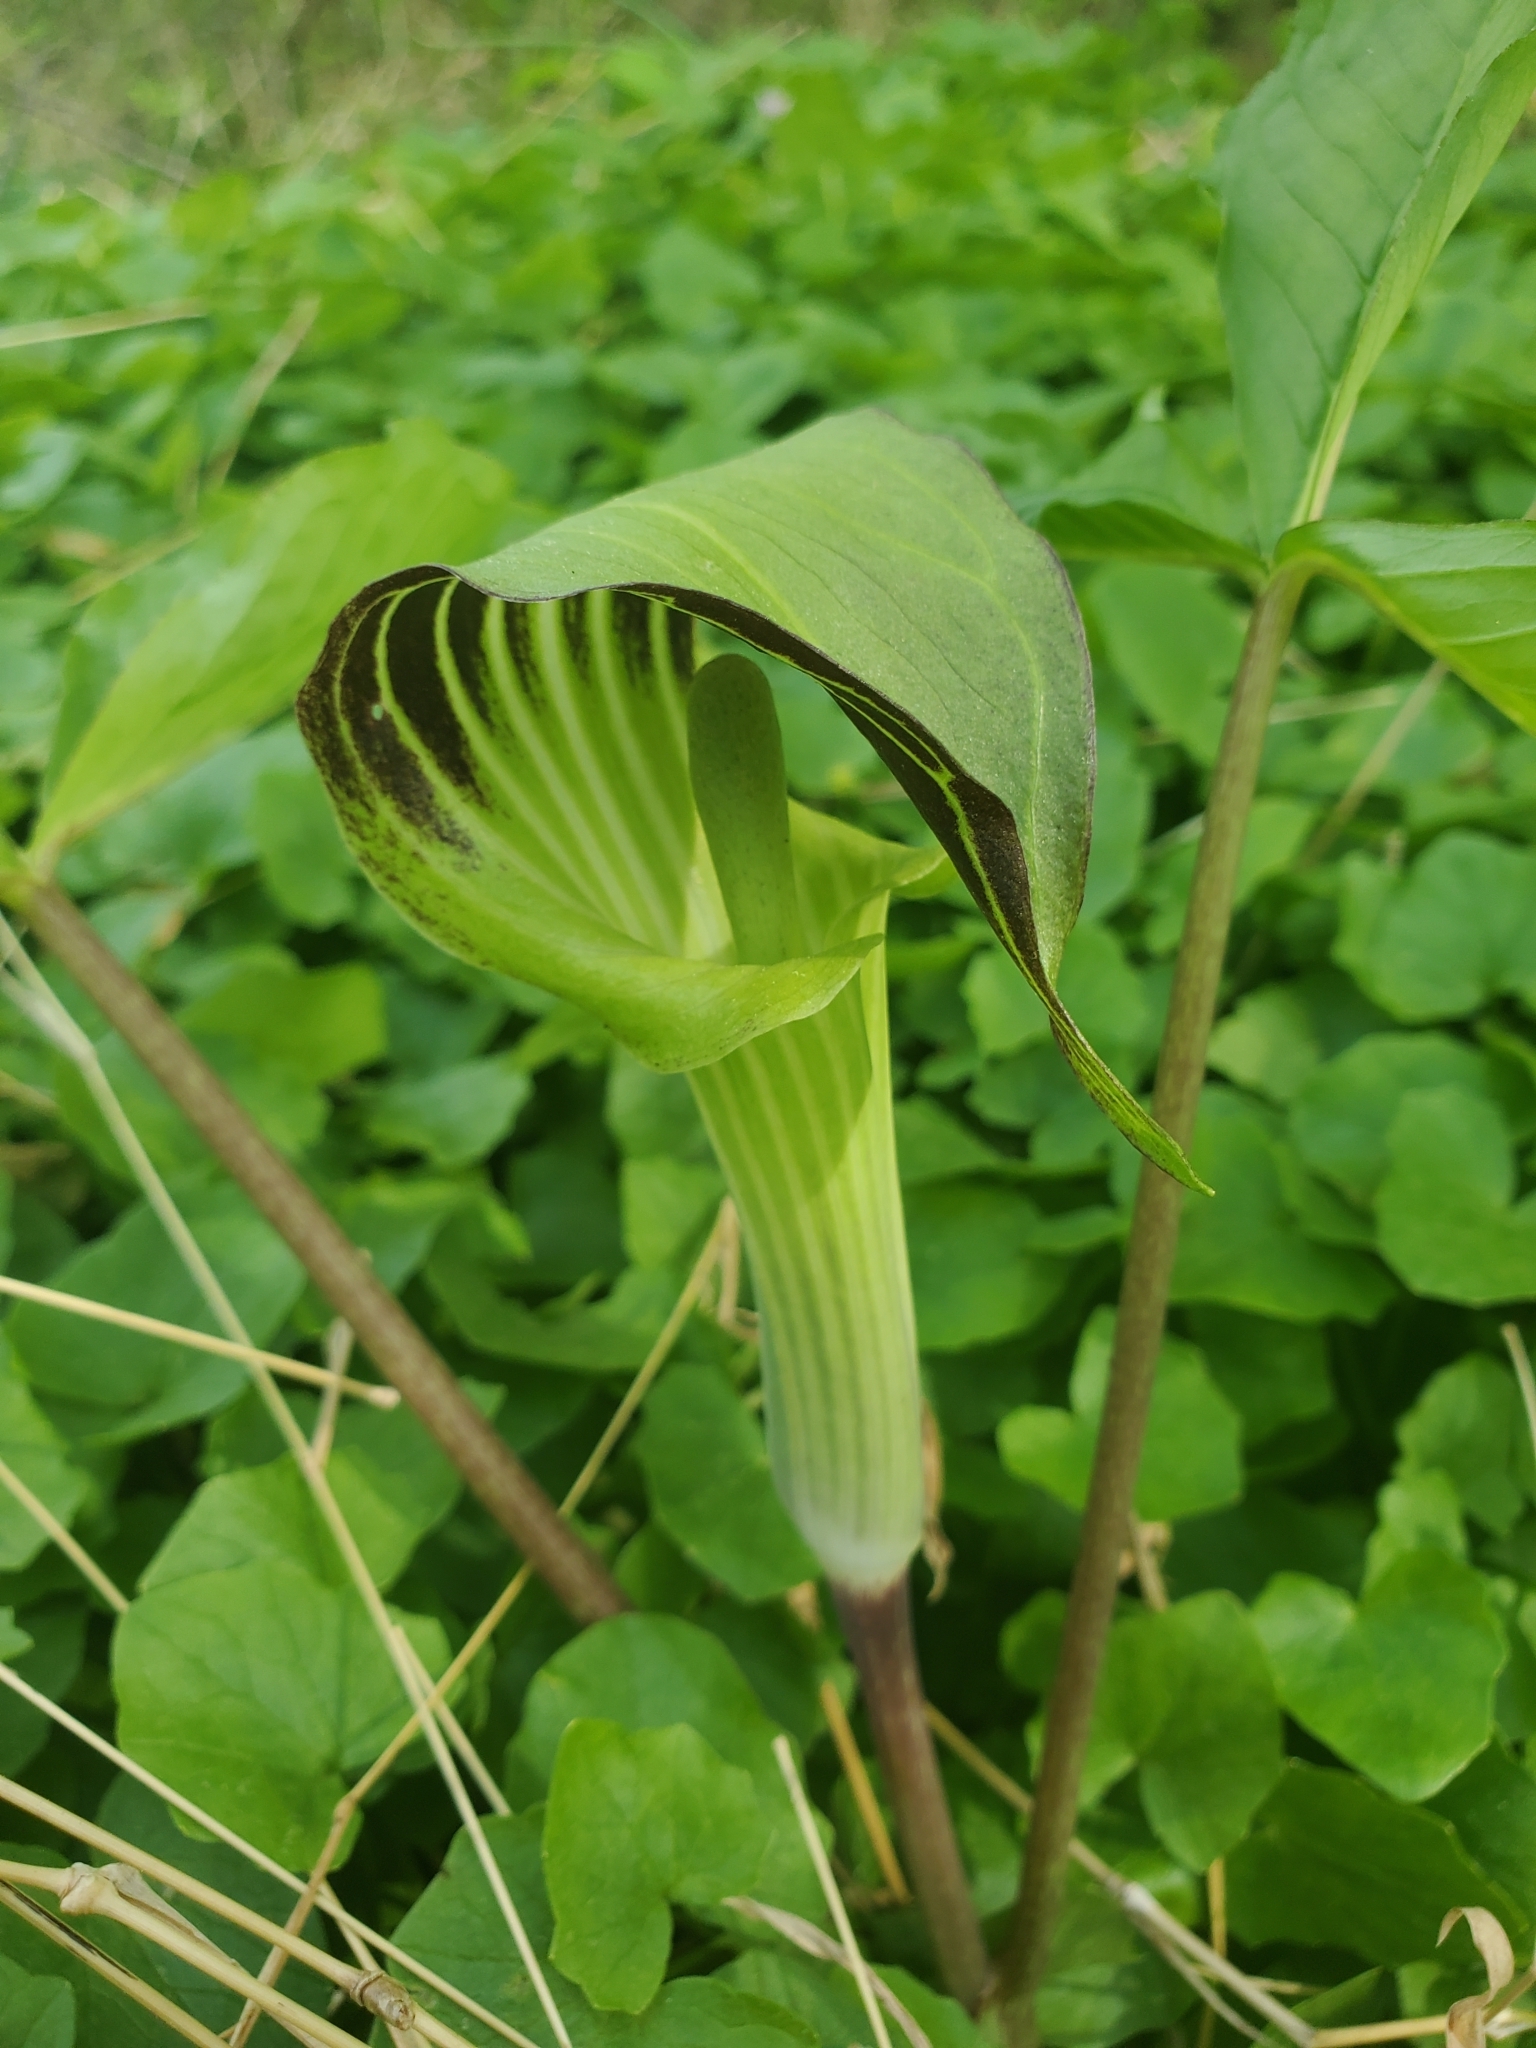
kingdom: Plantae
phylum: Tracheophyta
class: Liliopsida
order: Alismatales
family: Araceae
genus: Arisaema
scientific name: Arisaema triphyllum
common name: Jack-in-the-pulpit
